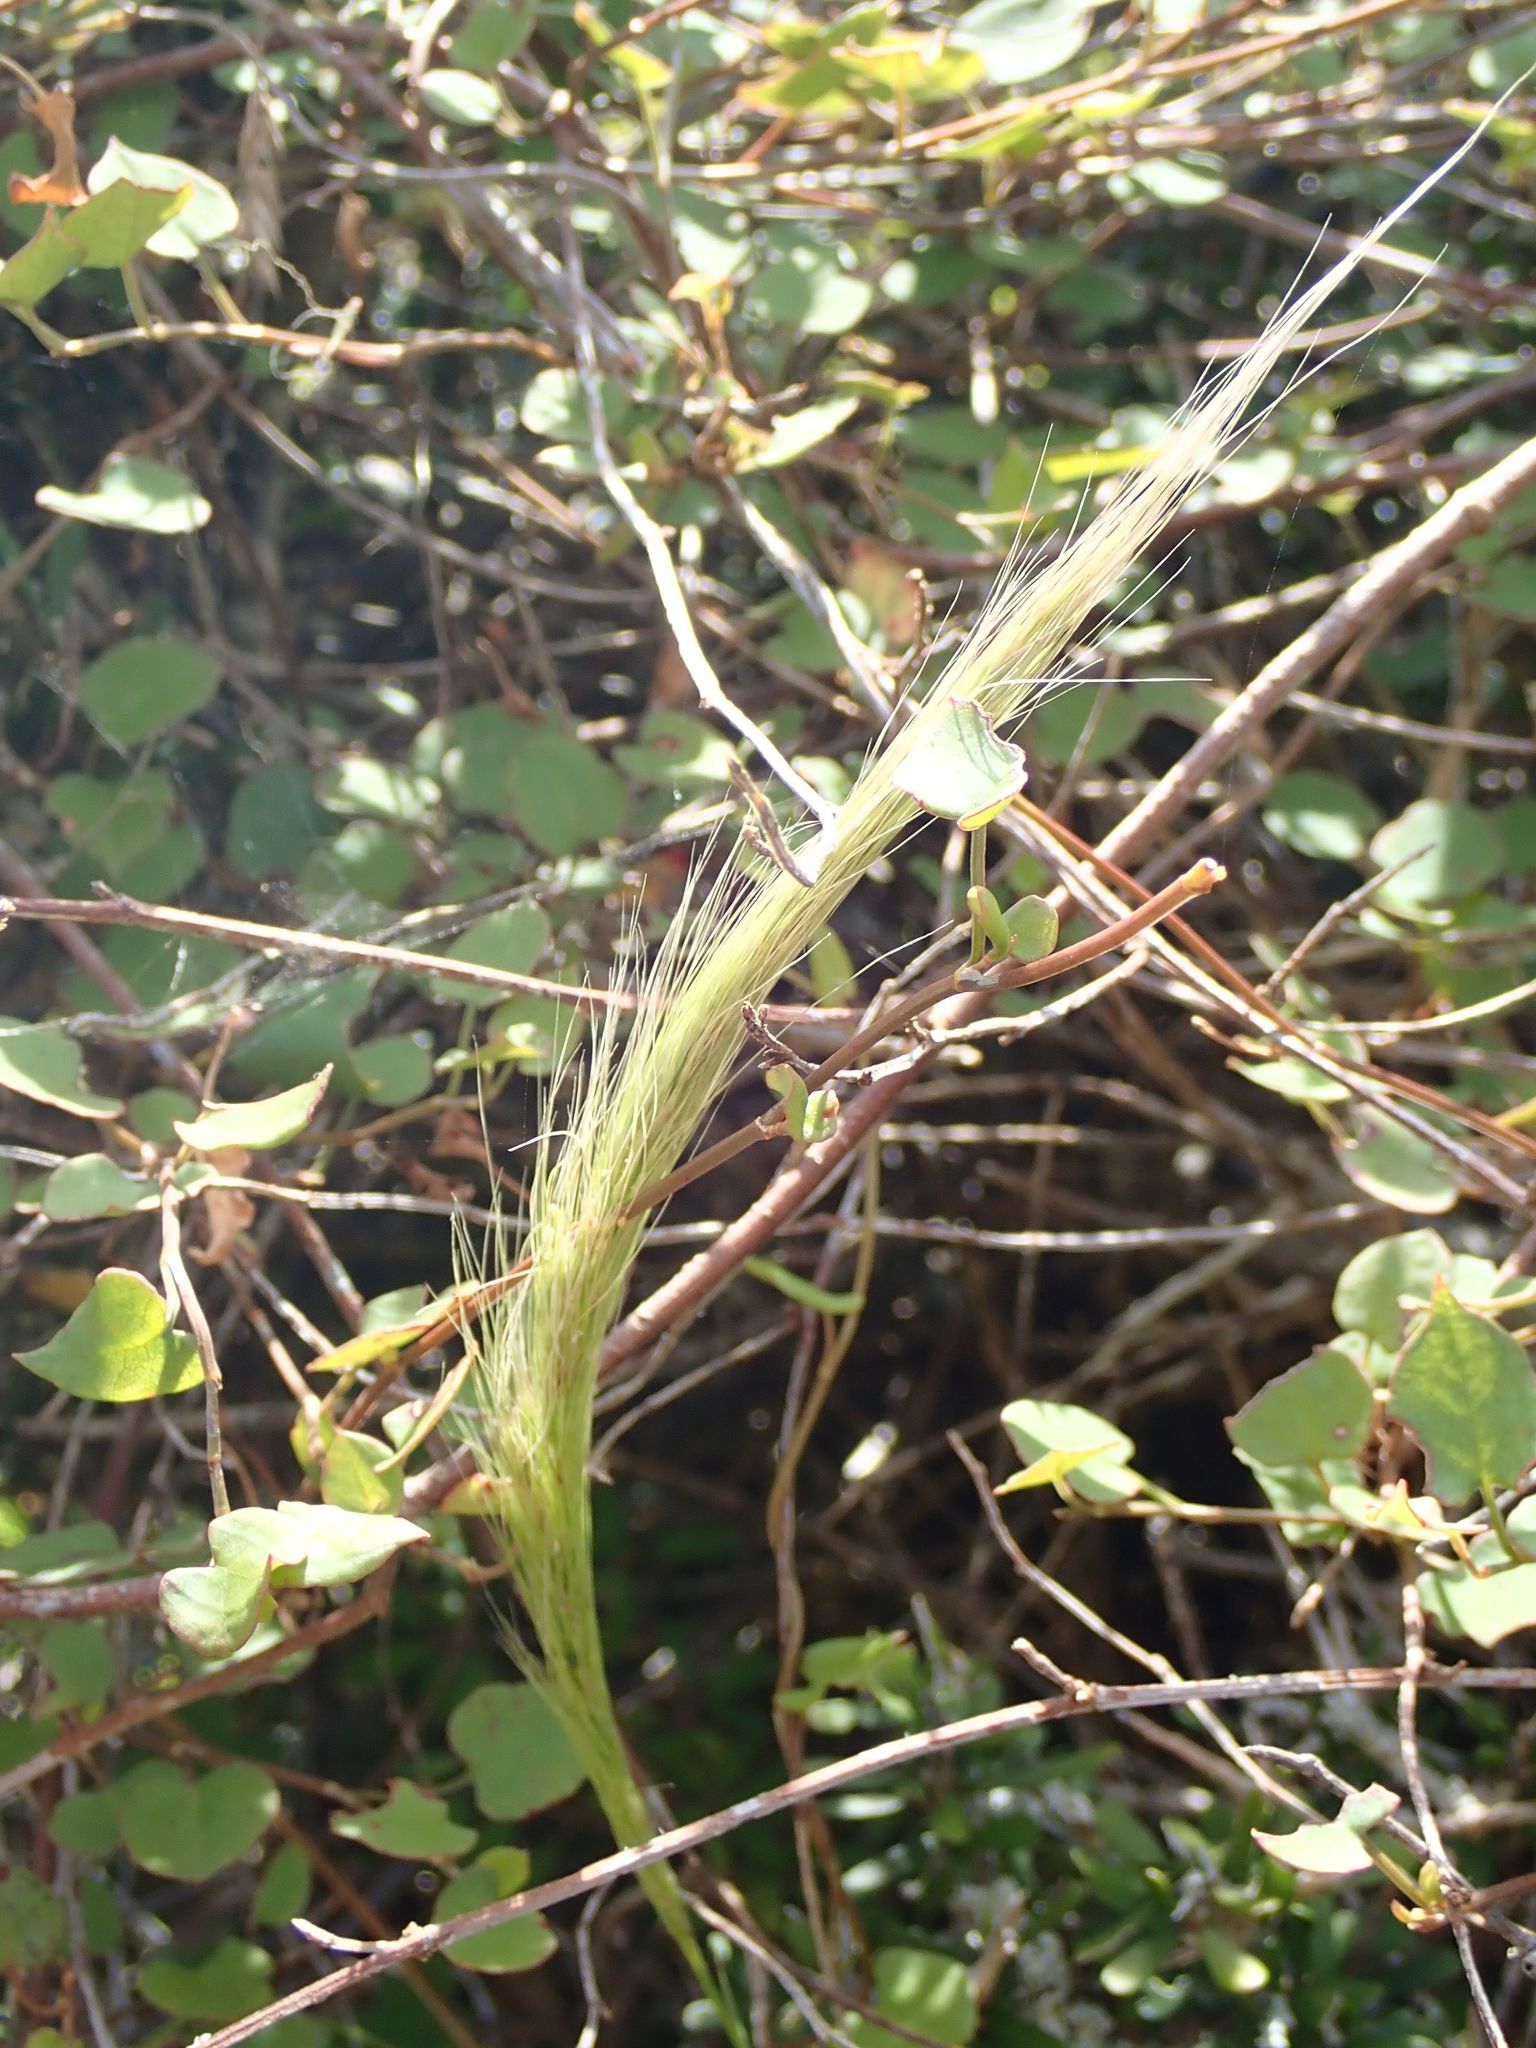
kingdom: Plantae
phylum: Tracheophyta
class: Liliopsida
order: Poales
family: Poaceae
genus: Dichelachne
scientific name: Dichelachne crinita
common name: Clovenfoot plumegrass
